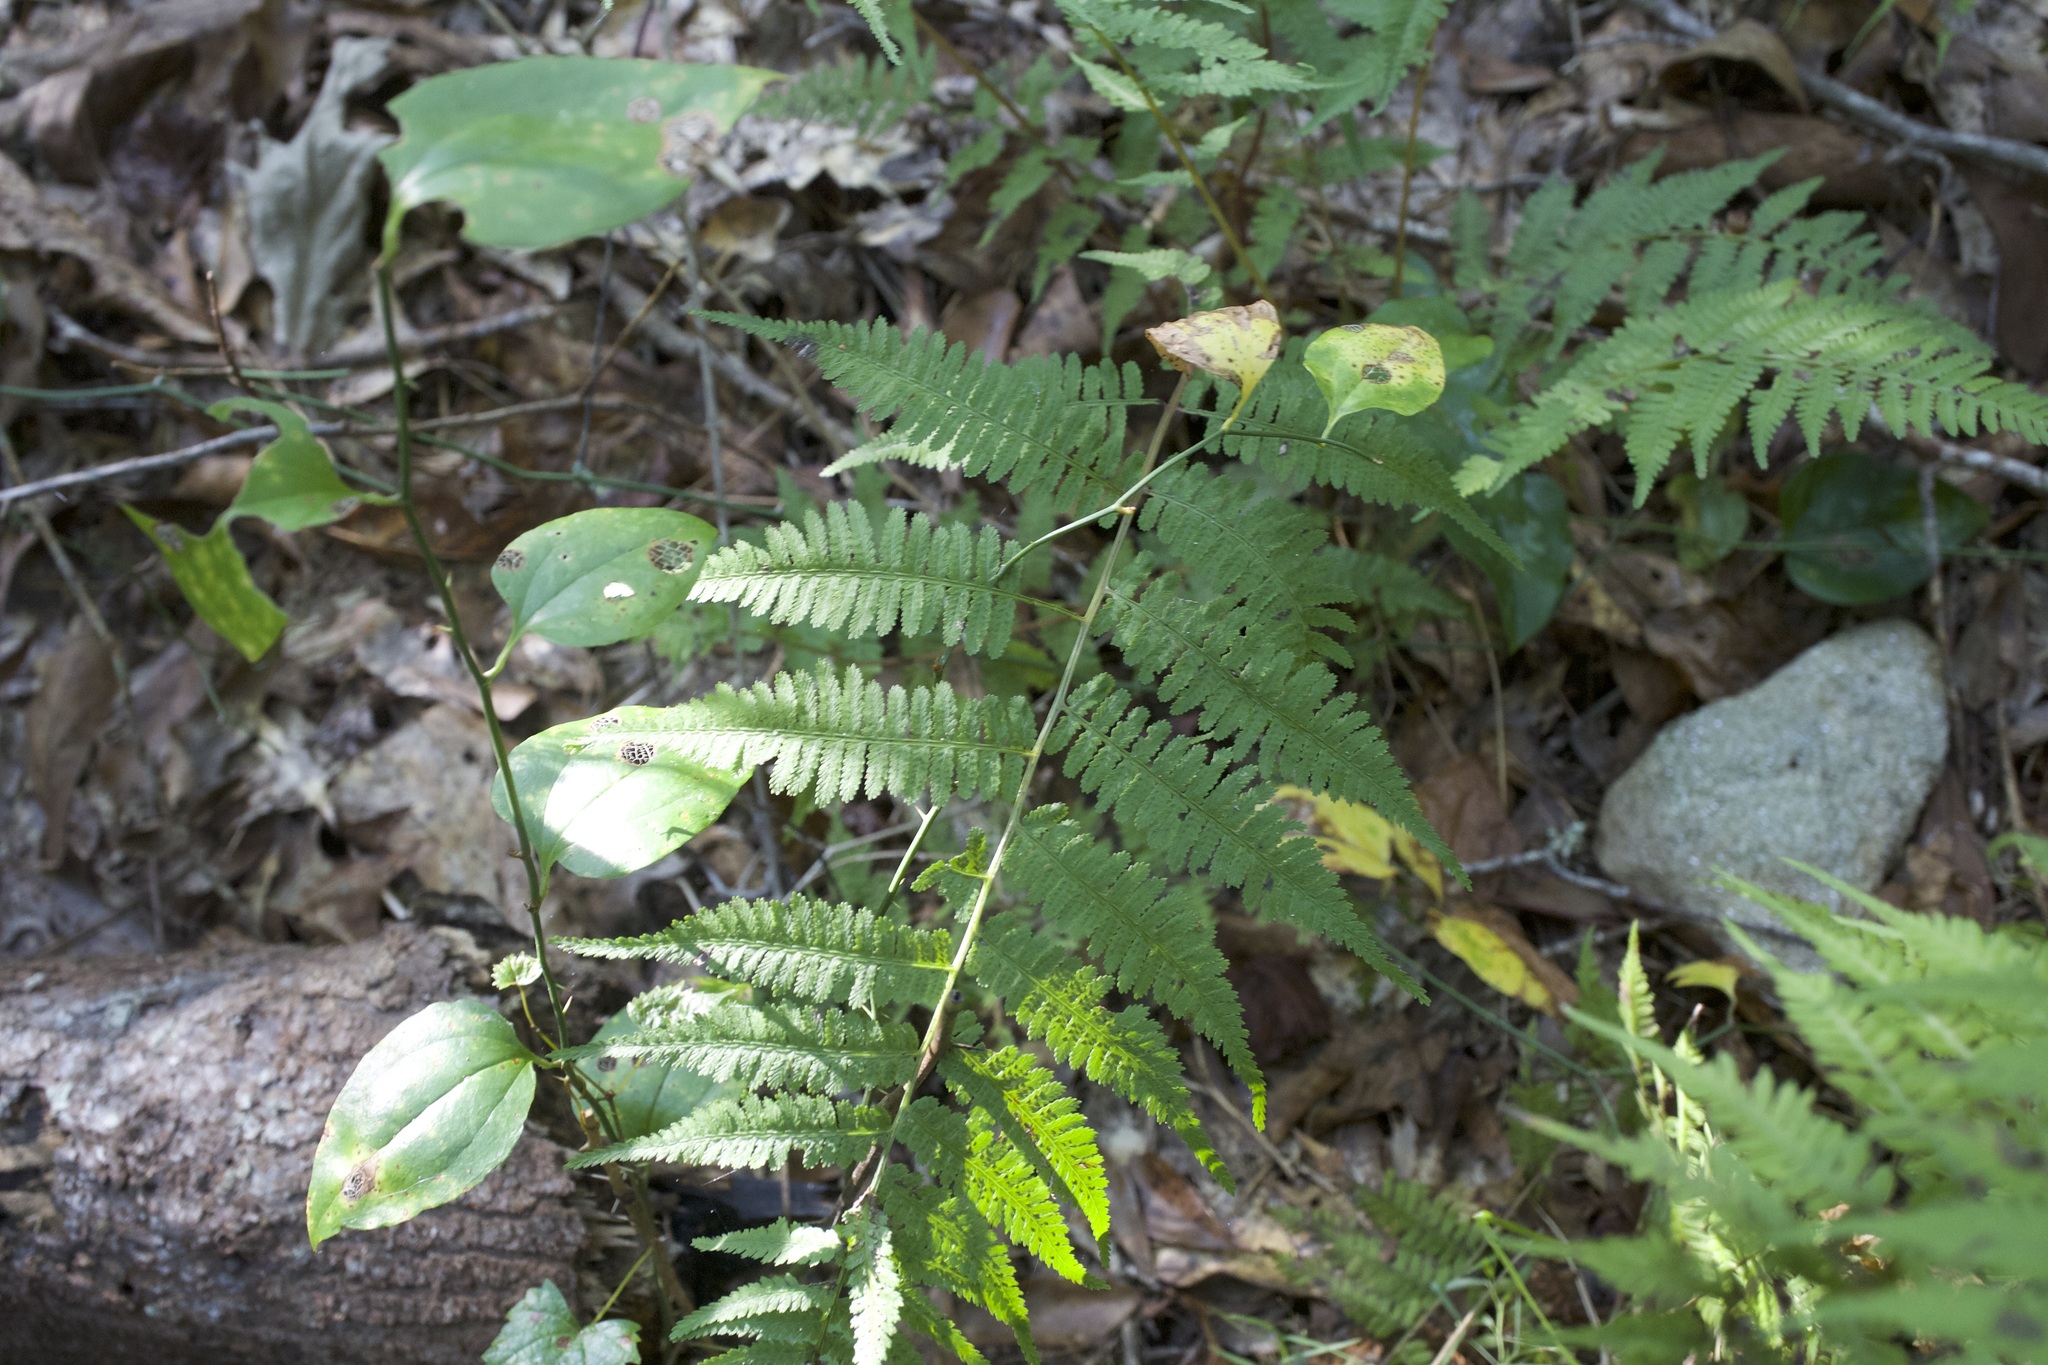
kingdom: Plantae
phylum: Tracheophyta
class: Polypodiopsida
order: Polypodiales
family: Athyriaceae
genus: Athyrium
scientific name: Athyrium asplenioides
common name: Southern lady fern
